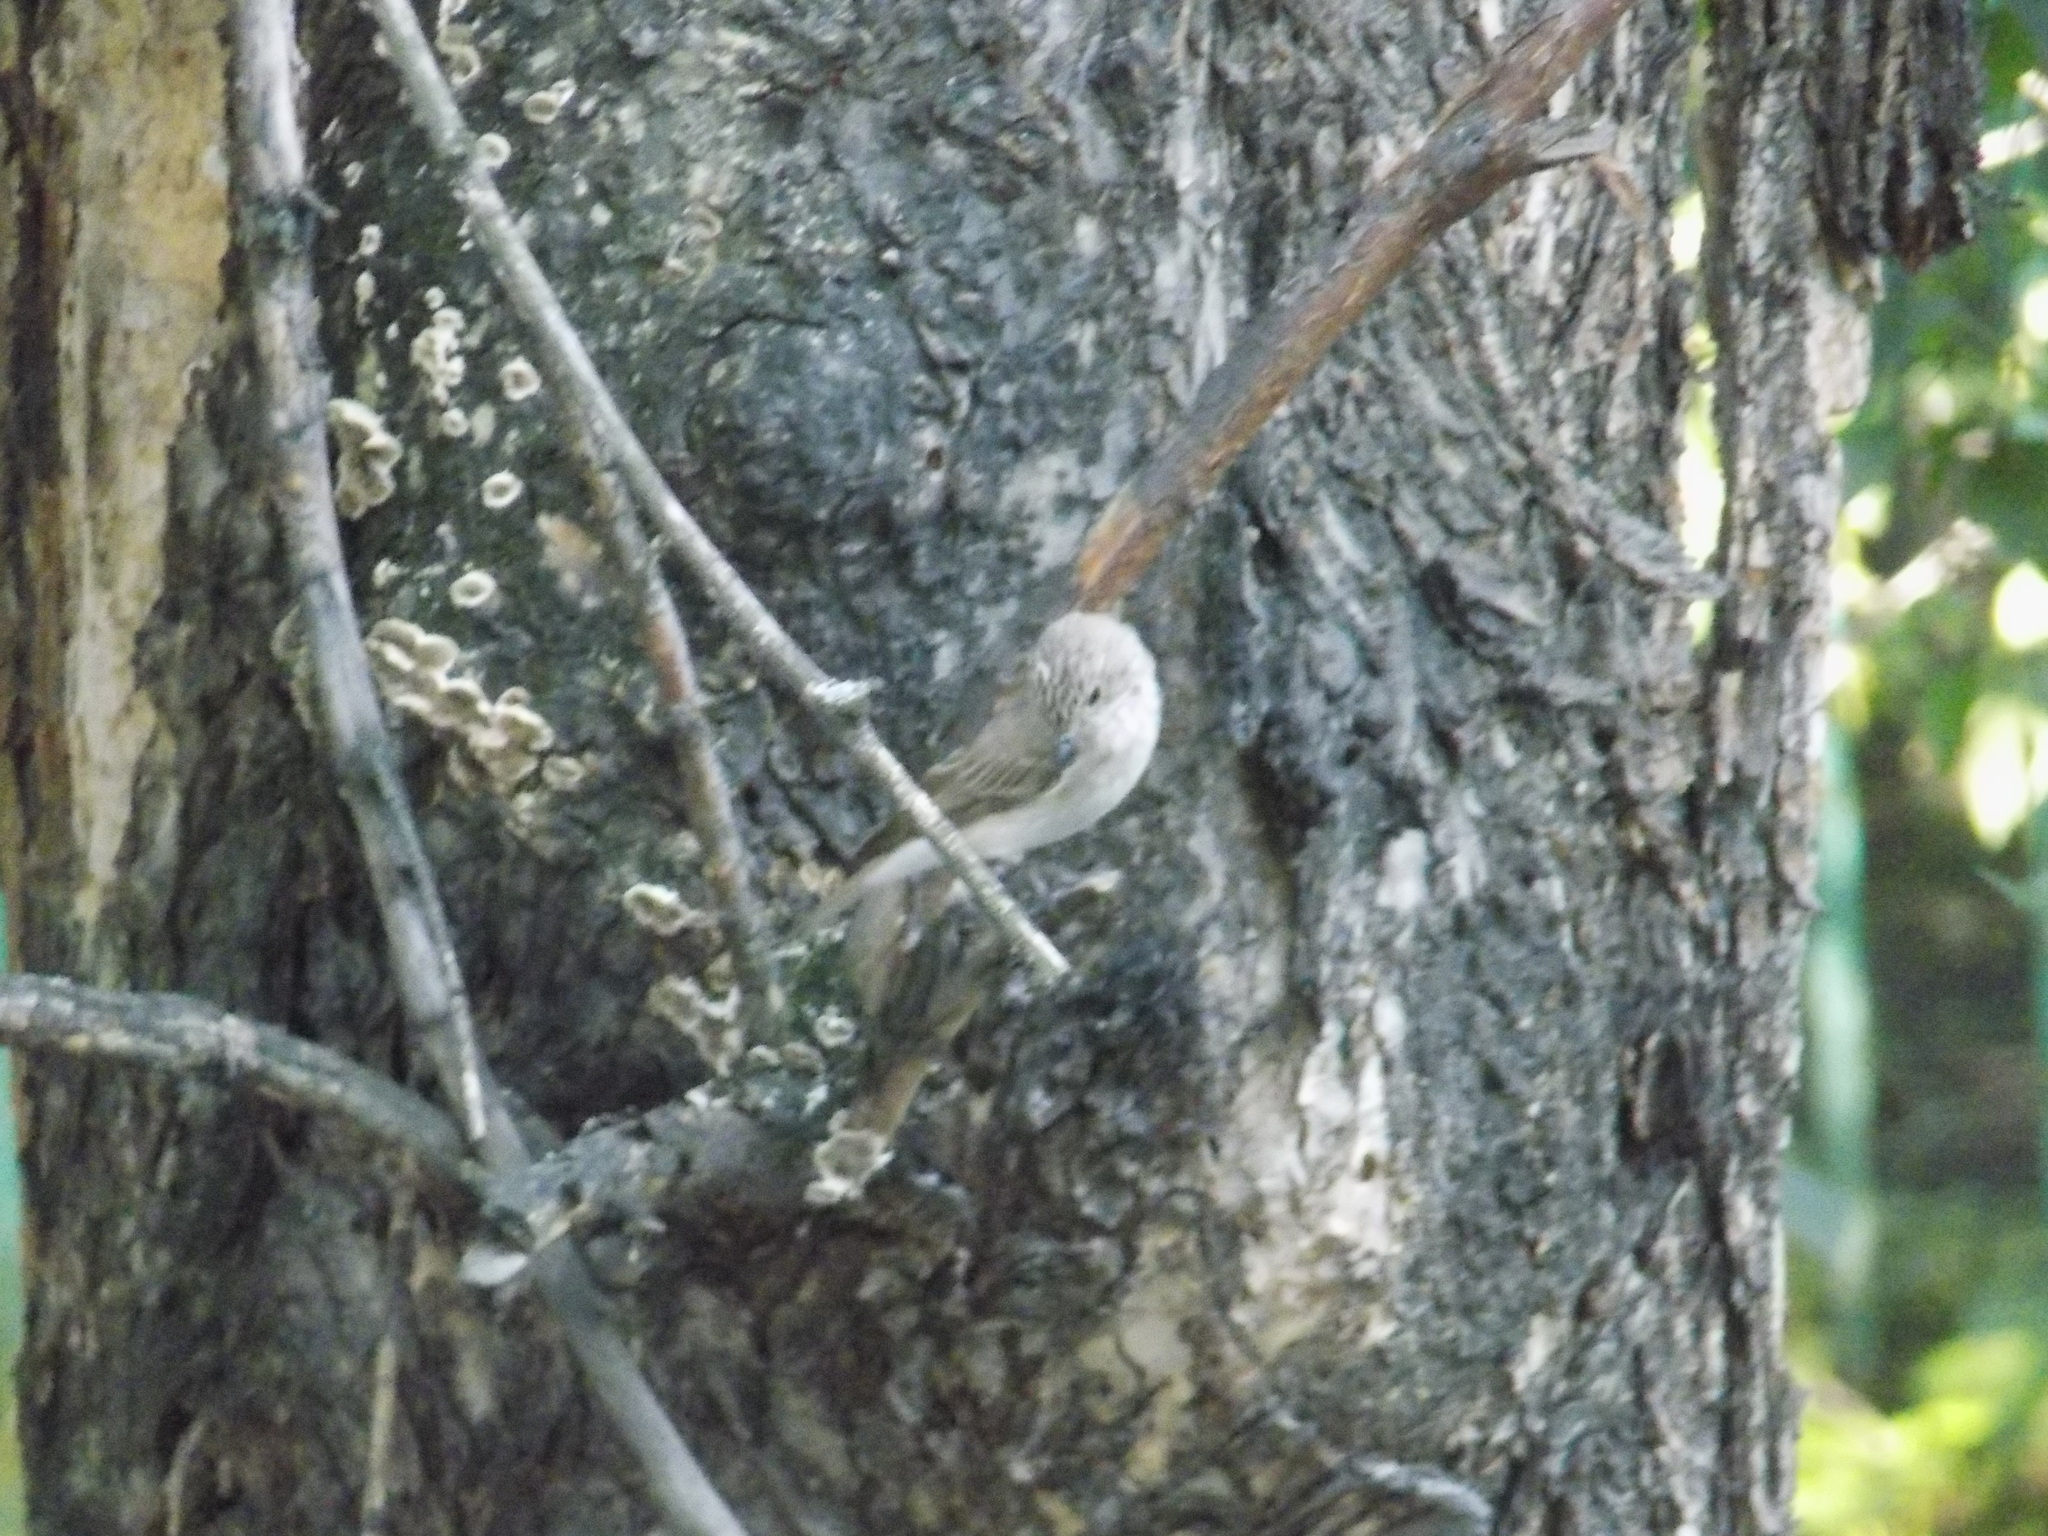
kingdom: Animalia
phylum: Chordata
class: Aves
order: Passeriformes
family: Muscicapidae
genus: Muscicapa
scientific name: Muscicapa striata
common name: Spotted flycatcher
